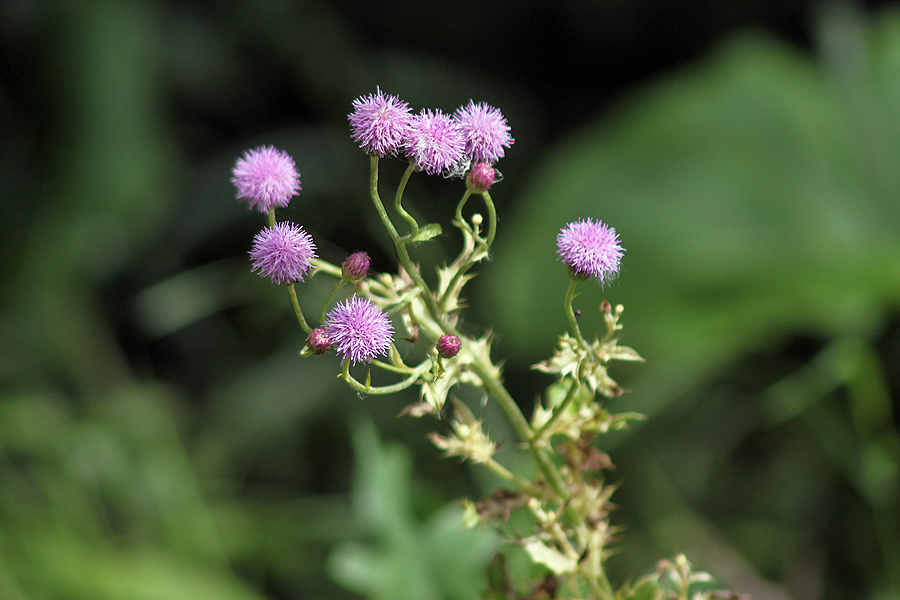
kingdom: Plantae
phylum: Tracheophyta
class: Magnoliopsida
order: Asterales
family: Asteraceae
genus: Cirsium
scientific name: Cirsium arvense
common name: Creeping thistle
